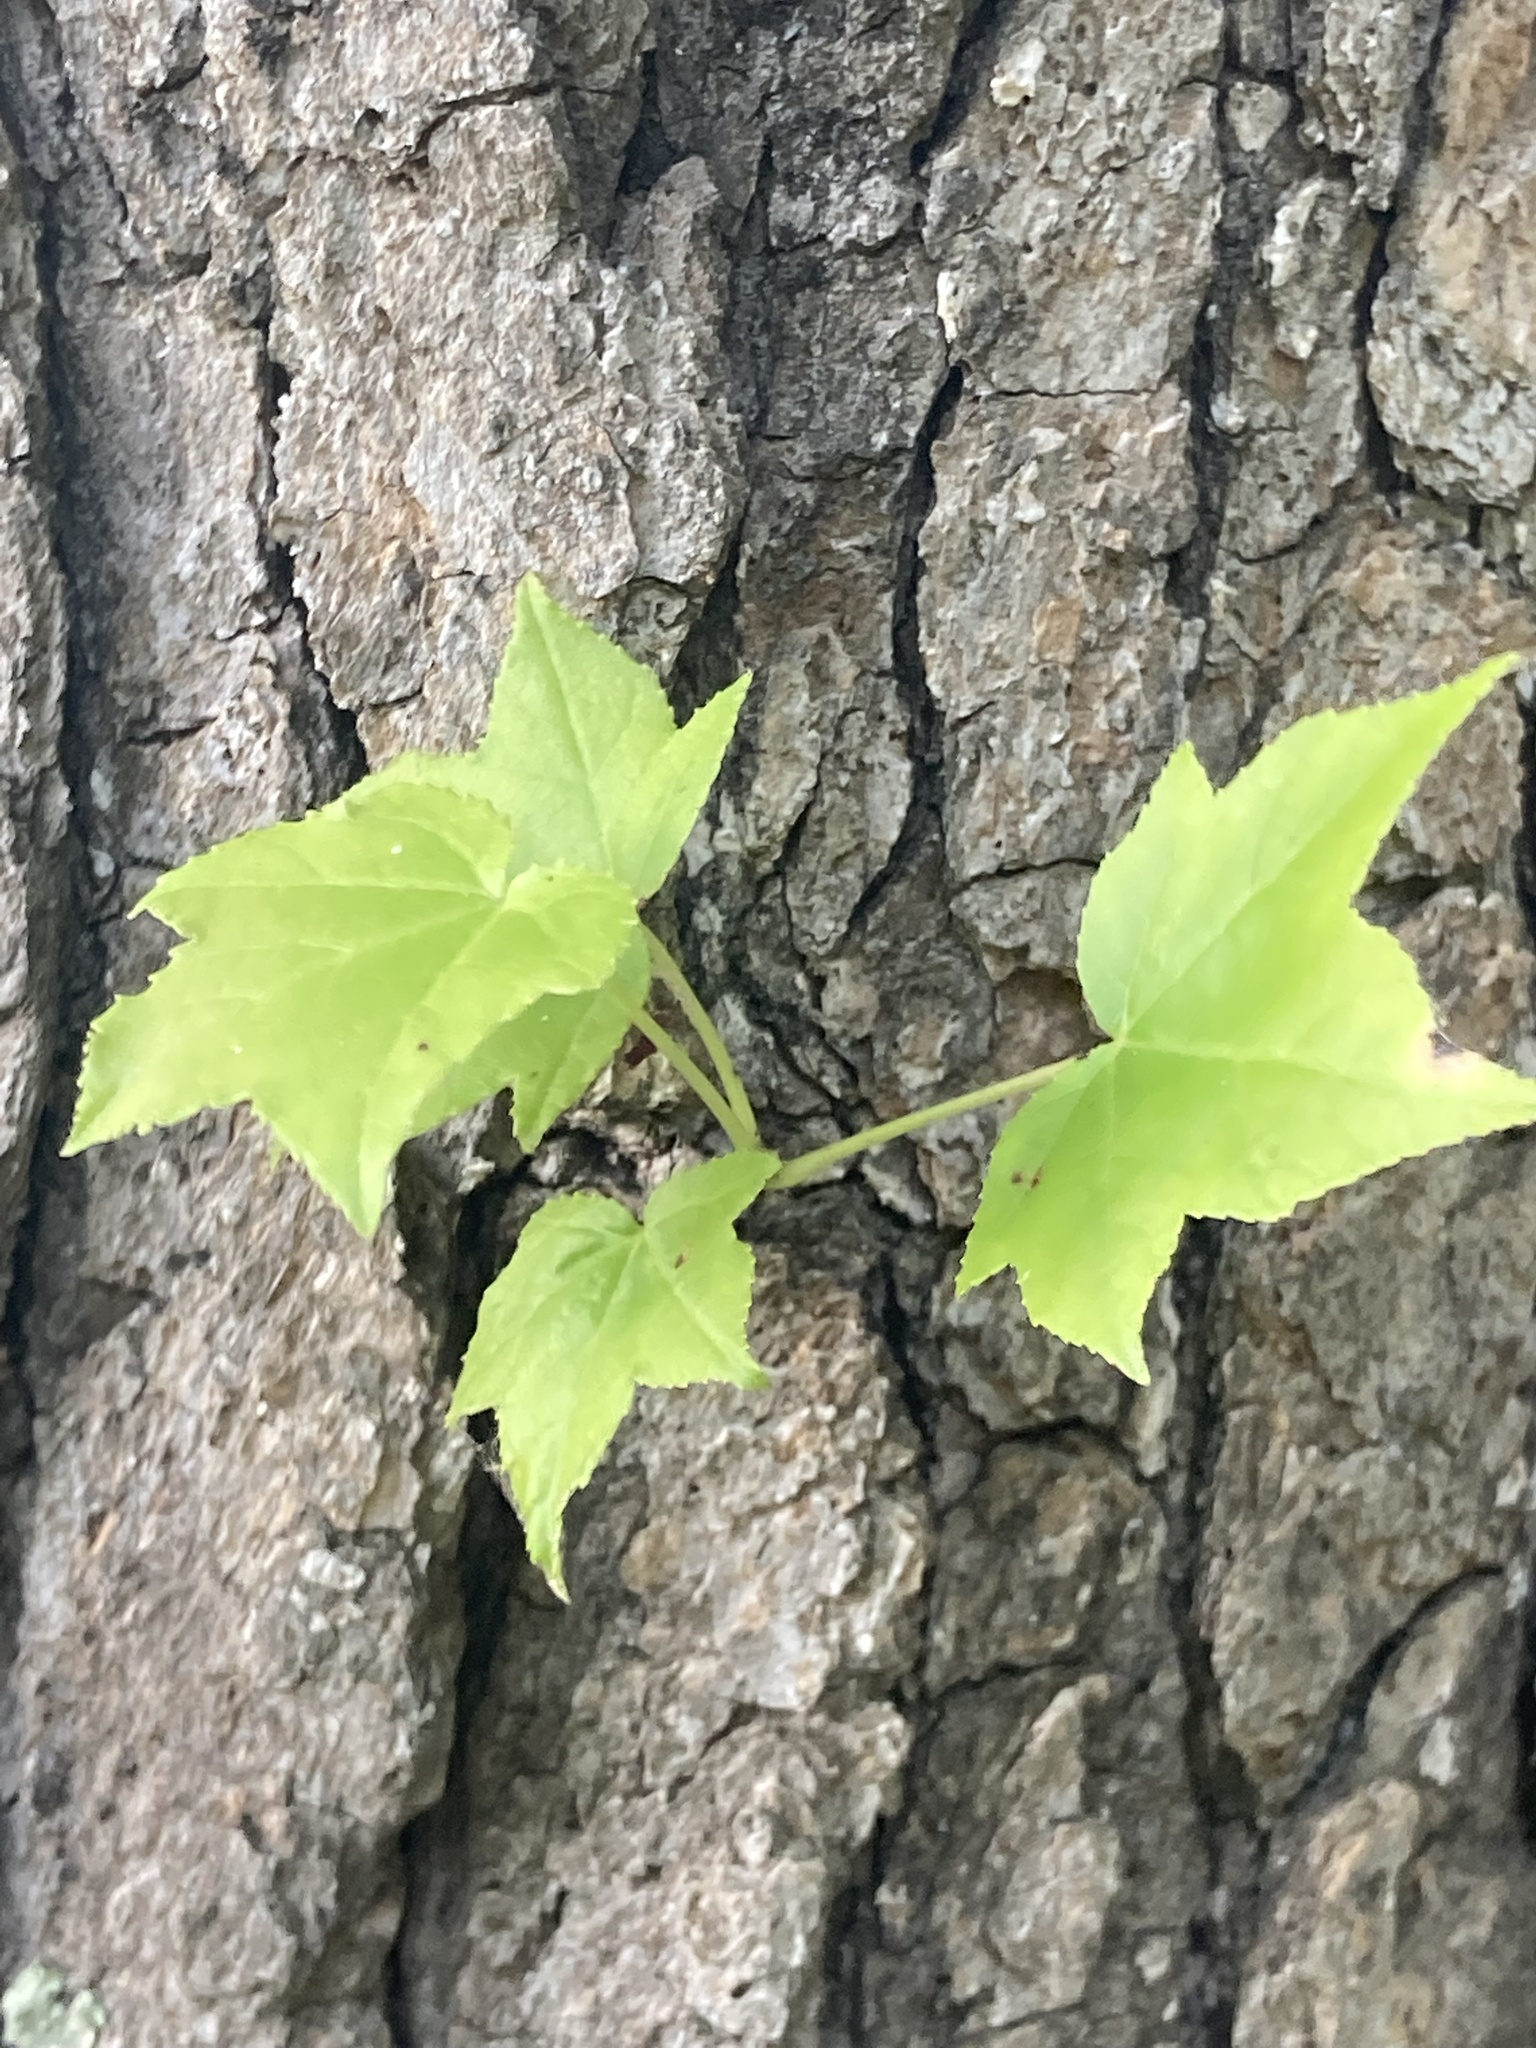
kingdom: Plantae
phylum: Tracheophyta
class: Magnoliopsida
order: Saxifragales
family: Altingiaceae
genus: Liquidambar
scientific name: Liquidambar styraciflua
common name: Sweet gum
